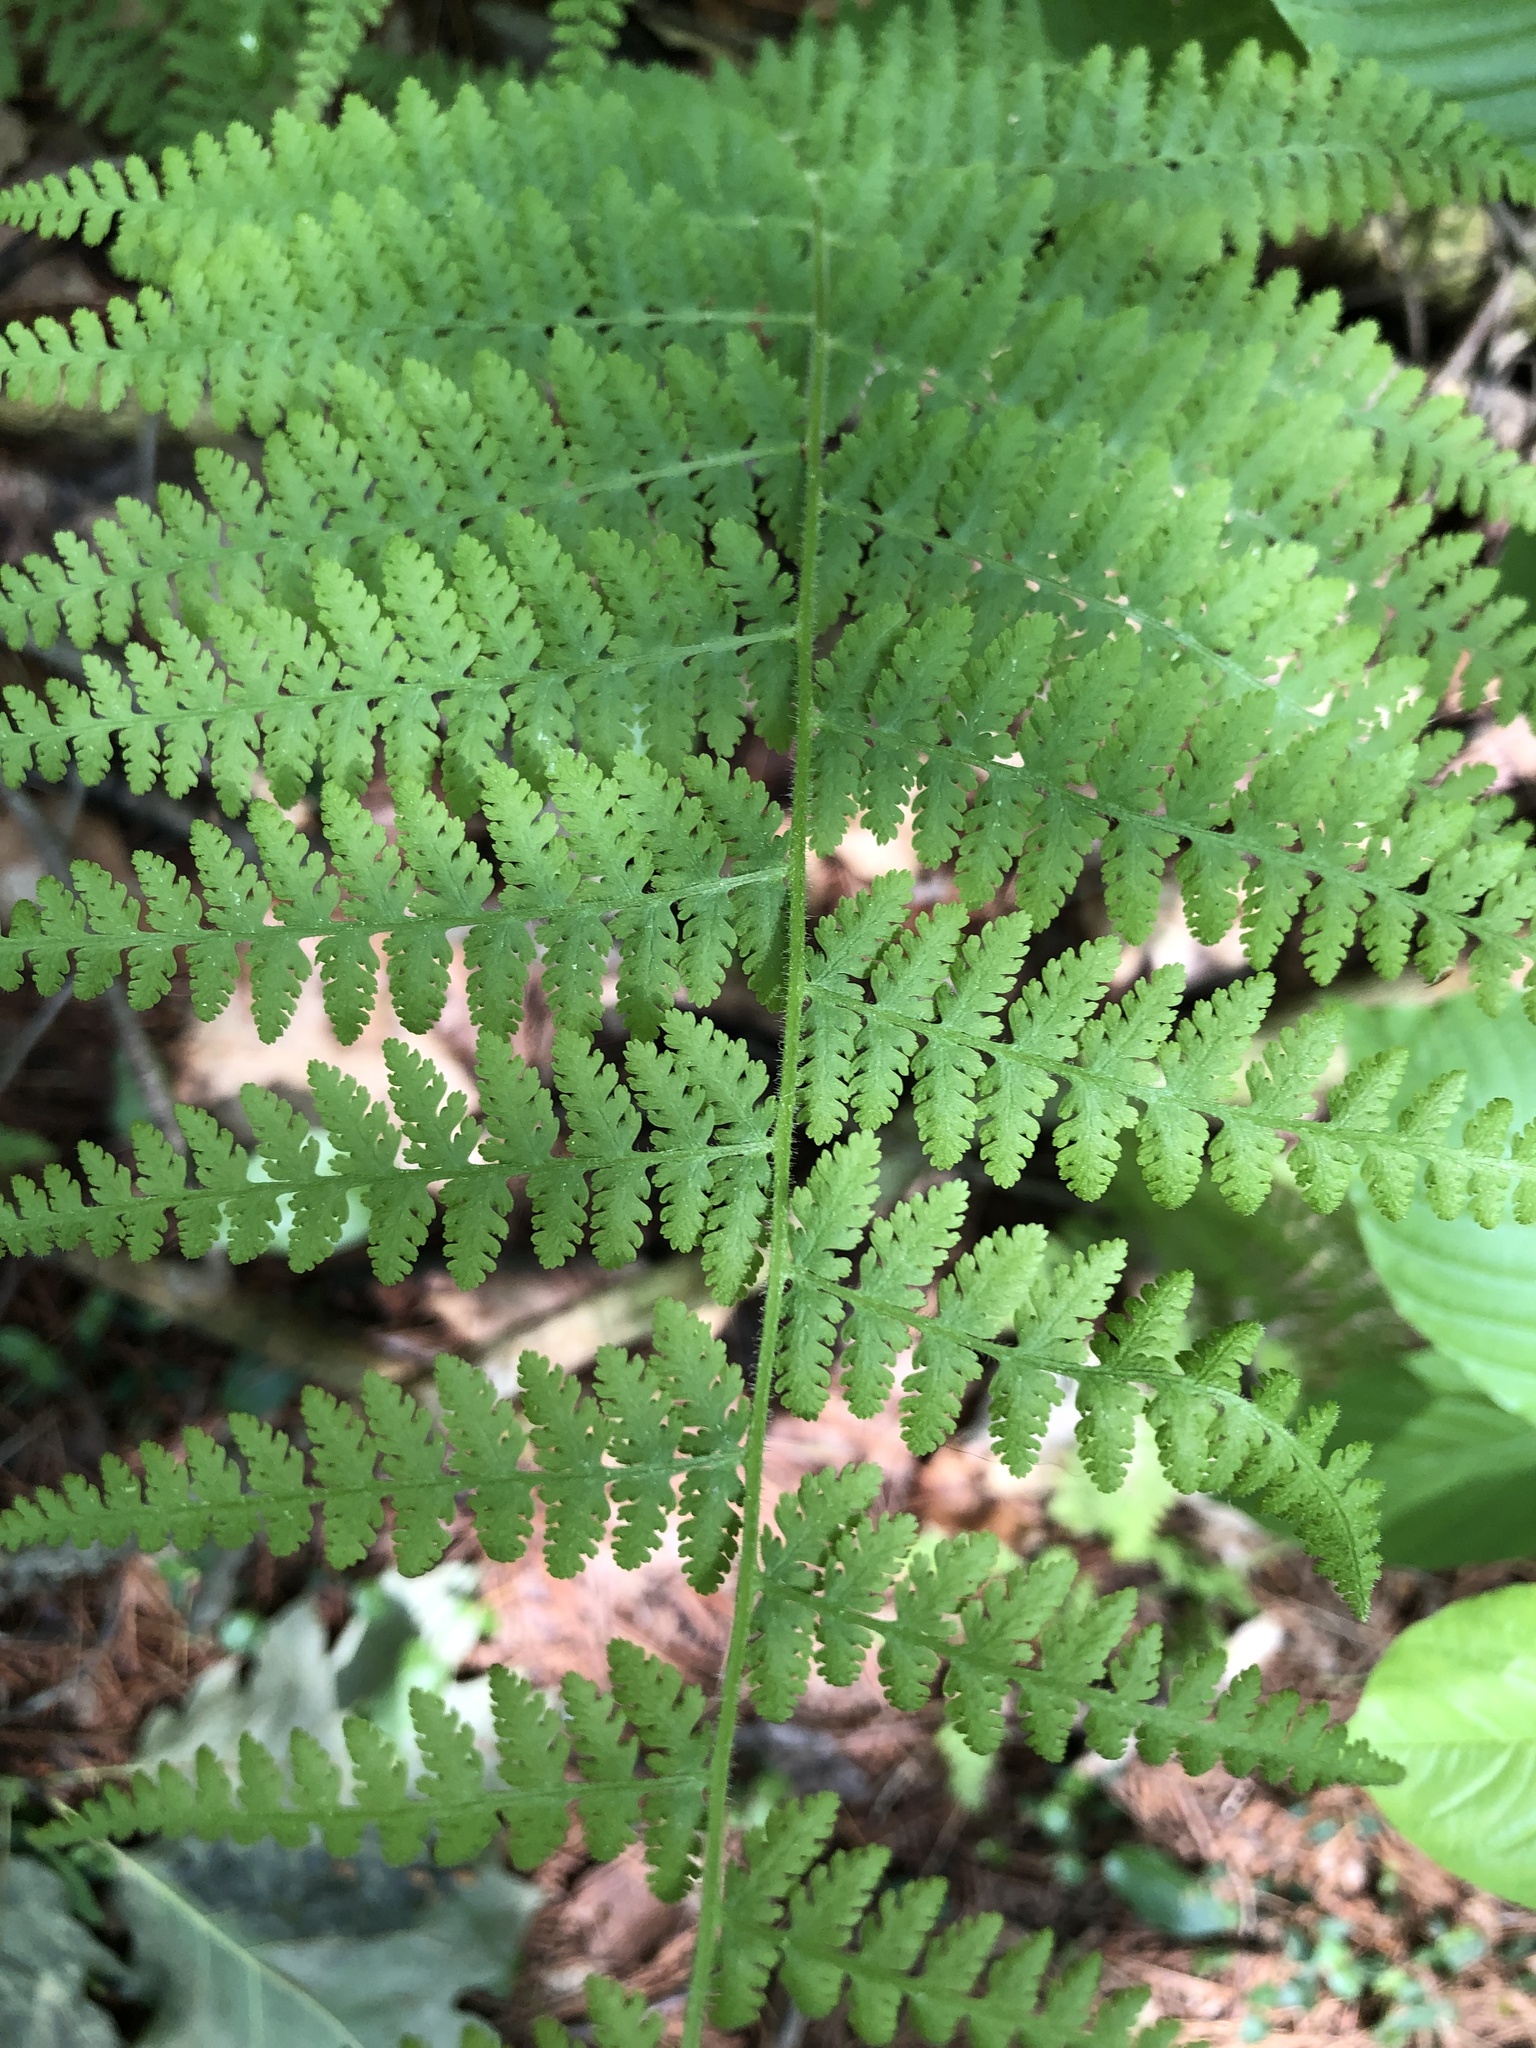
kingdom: Plantae
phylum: Tracheophyta
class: Polypodiopsida
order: Polypodiales
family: Dennstaedtiaceae
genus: Sitobolium
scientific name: Sitobolium punctilobum
